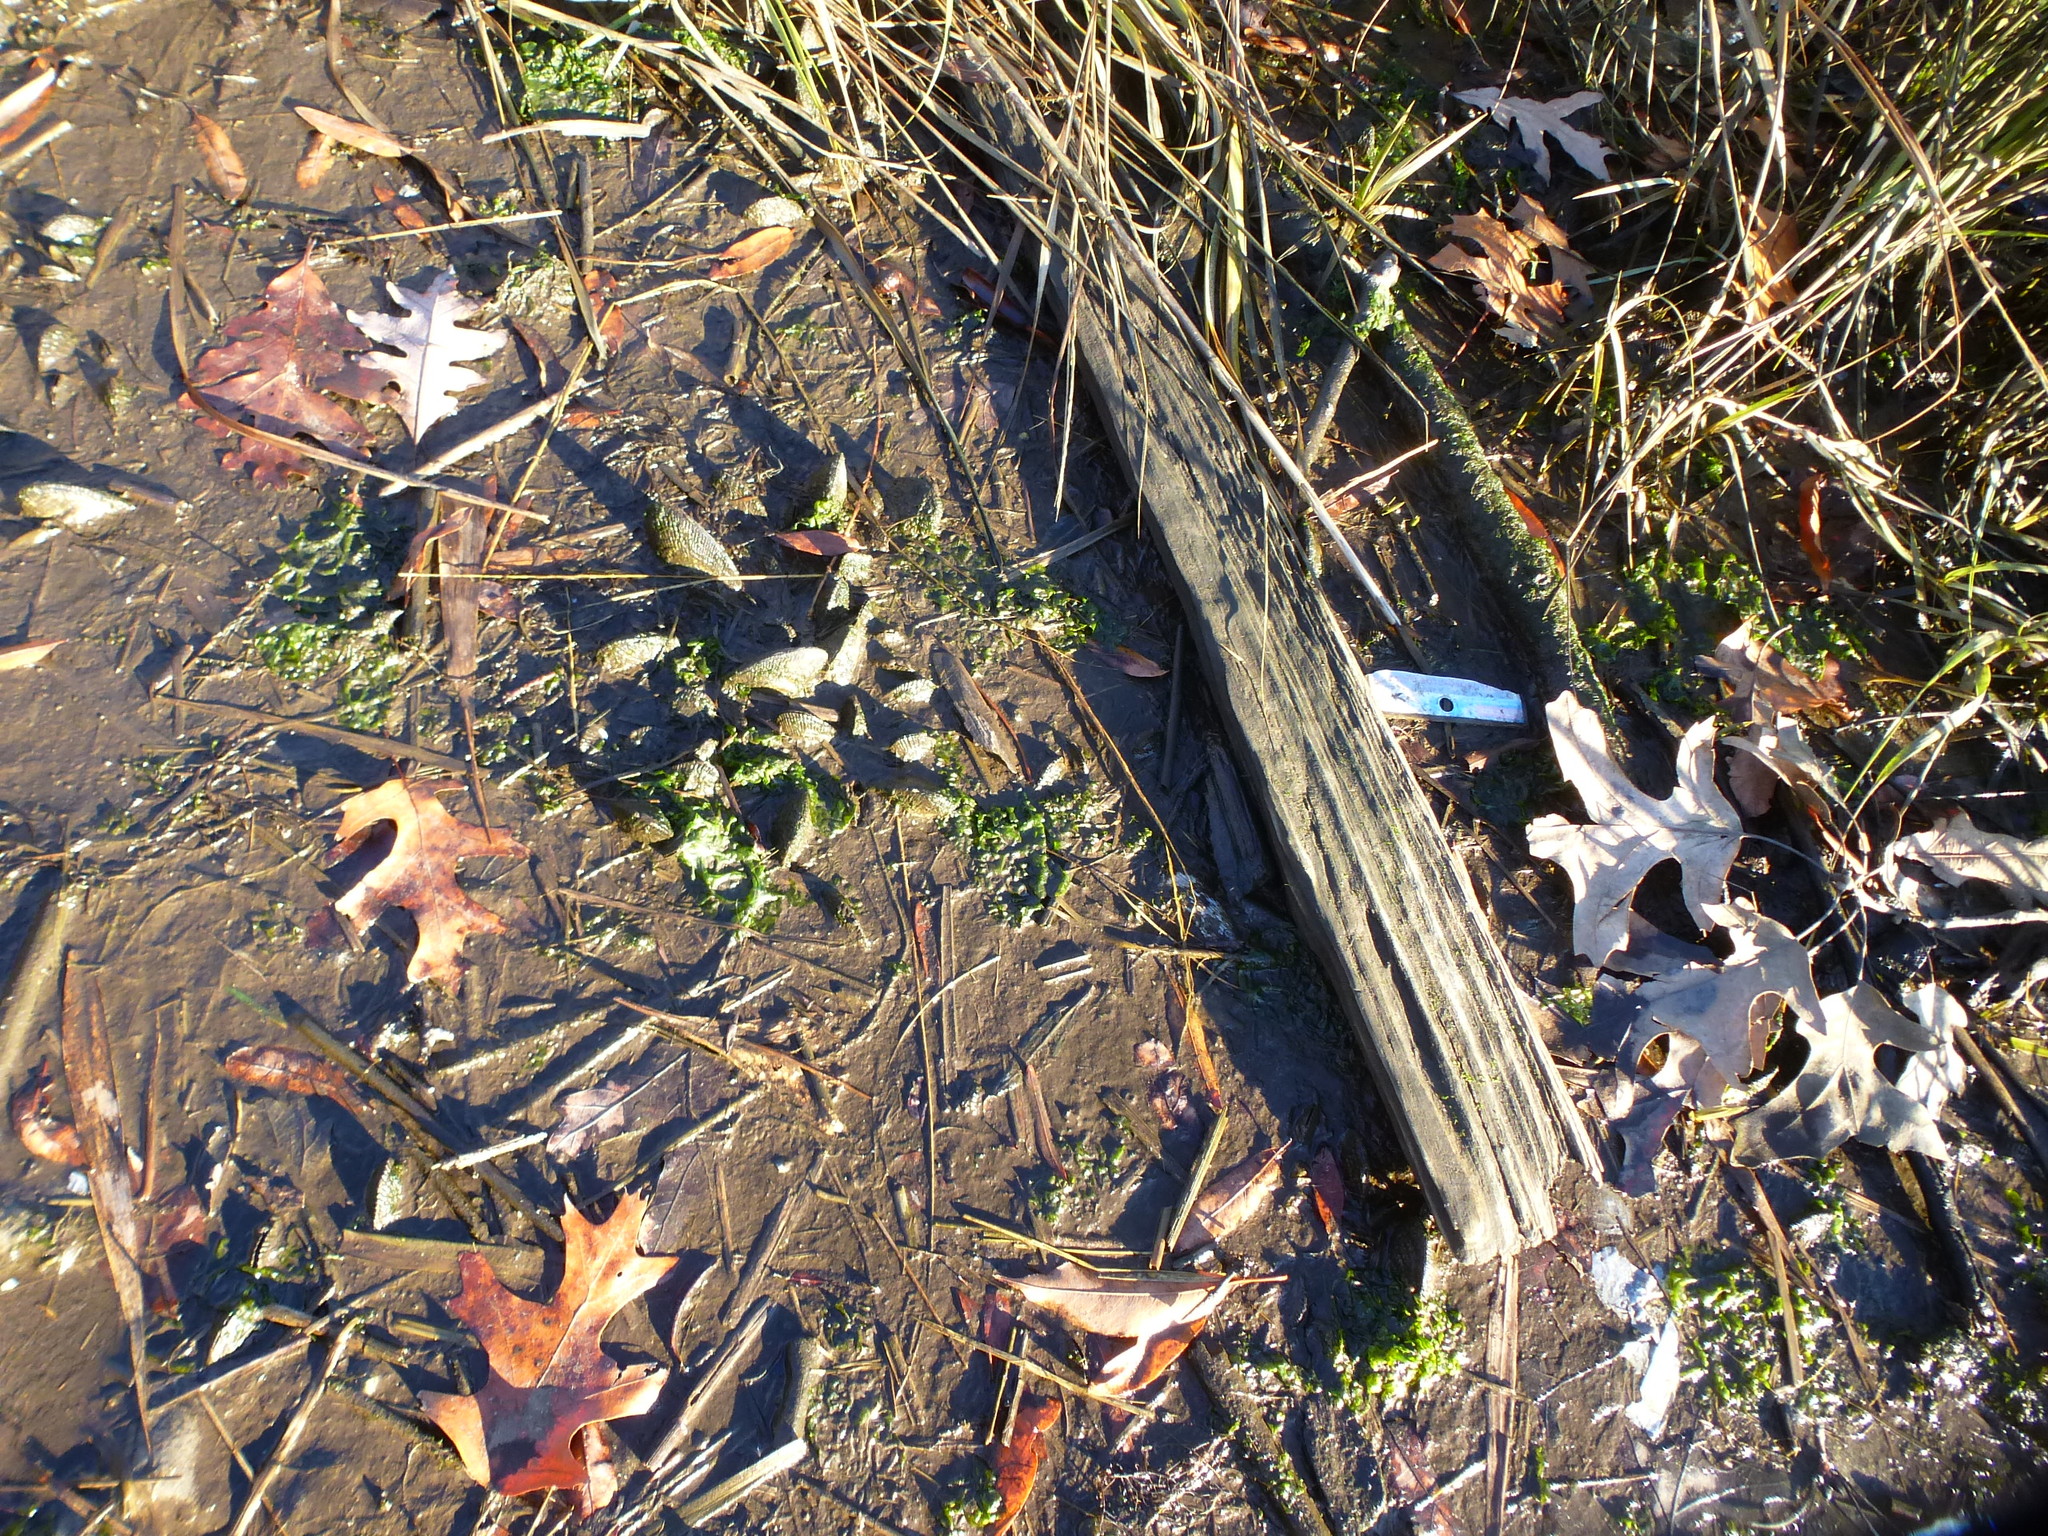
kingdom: Animalia
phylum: Mollusca
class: Bivalvia
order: Mytilida
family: Mytilidae
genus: Geukensia
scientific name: Geukensia demissa
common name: Ribbed mussel
